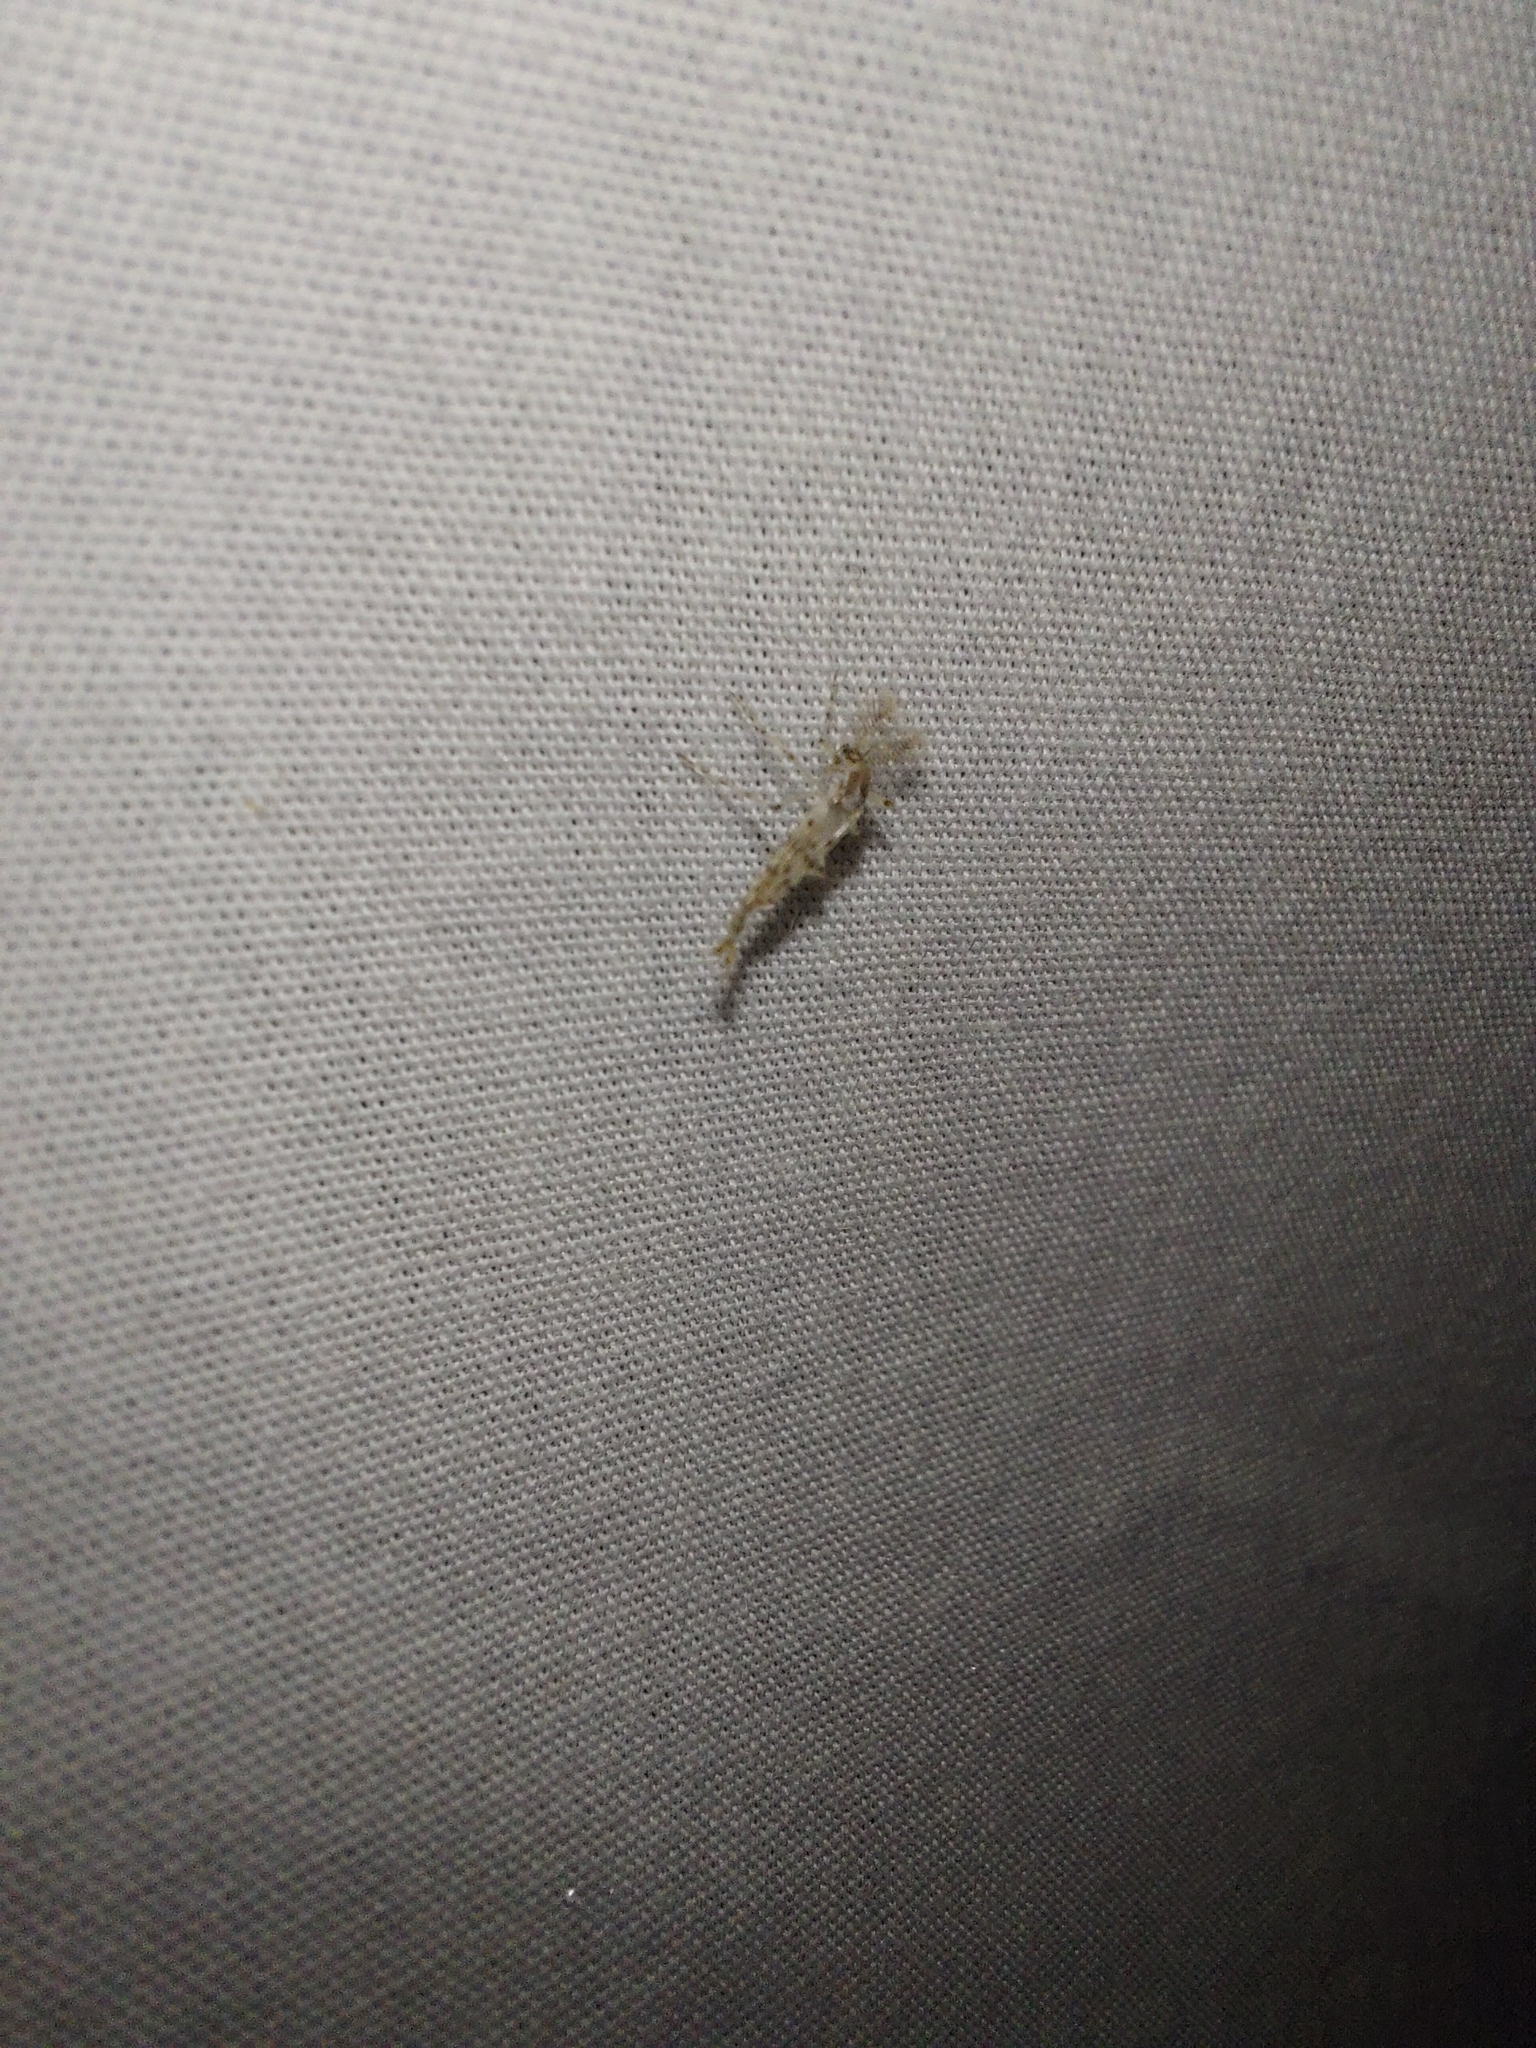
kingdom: Animalia
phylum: Arthropoda
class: Insecta
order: Diptera
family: Chaoboridae
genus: Chaoborus
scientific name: Chaoborus ornatipennis
